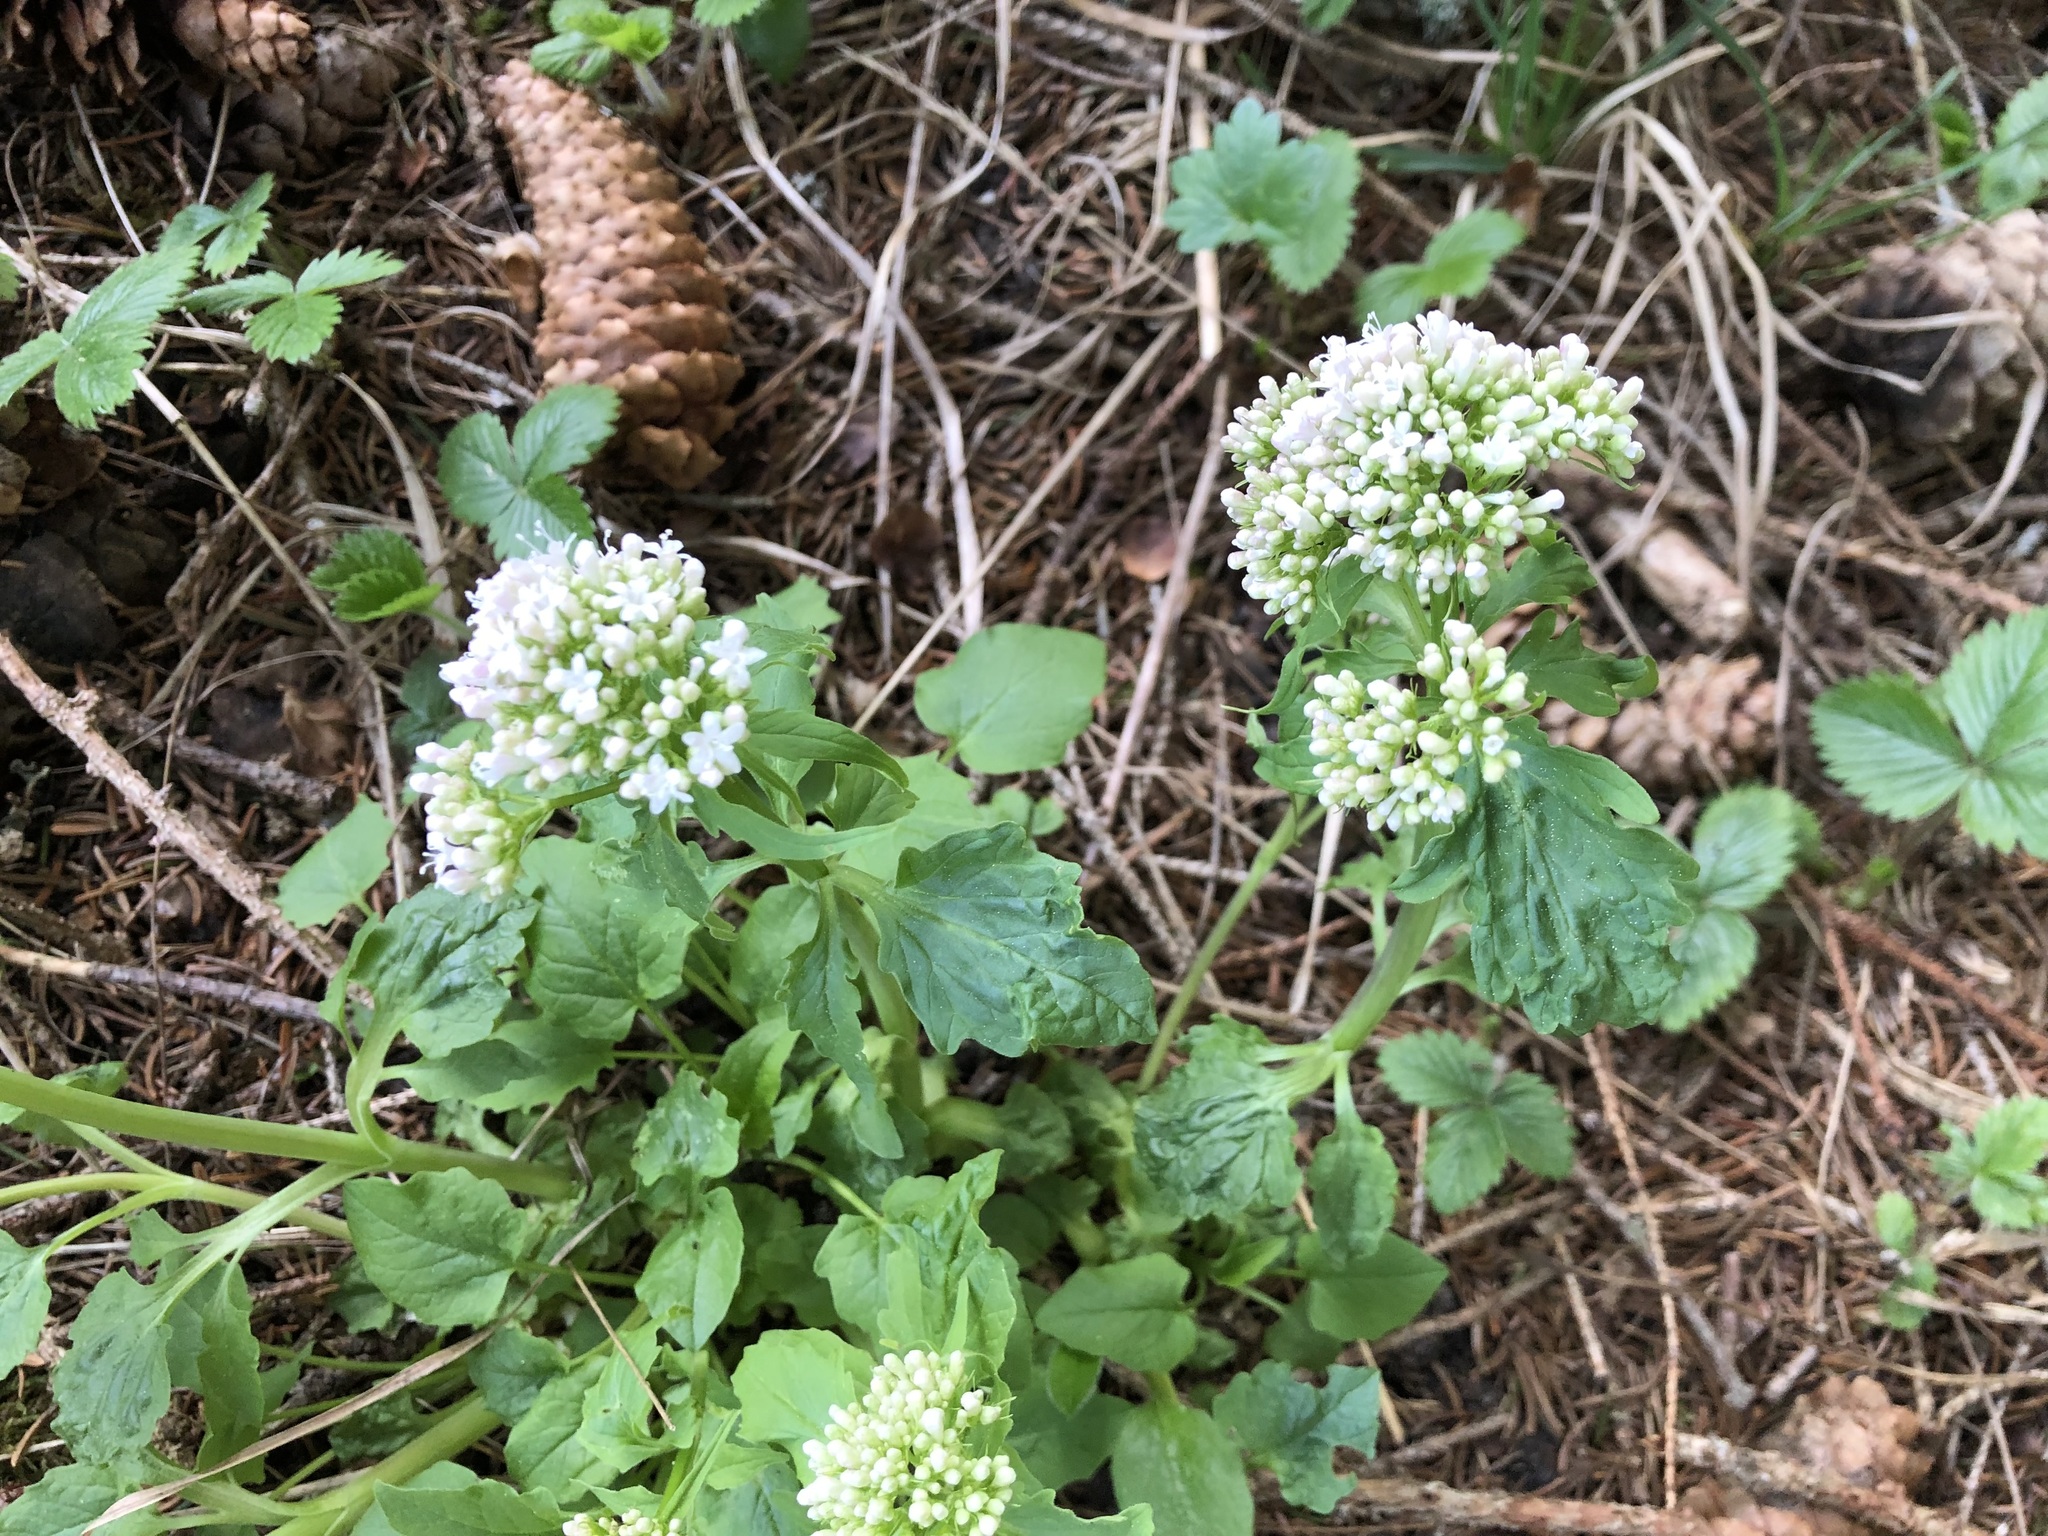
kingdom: Plantae
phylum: Tracheophyta
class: Magnoliopsida
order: Dipsacales
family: Caprifoliaceae
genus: Valeriana
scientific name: Valeriana tripteris
